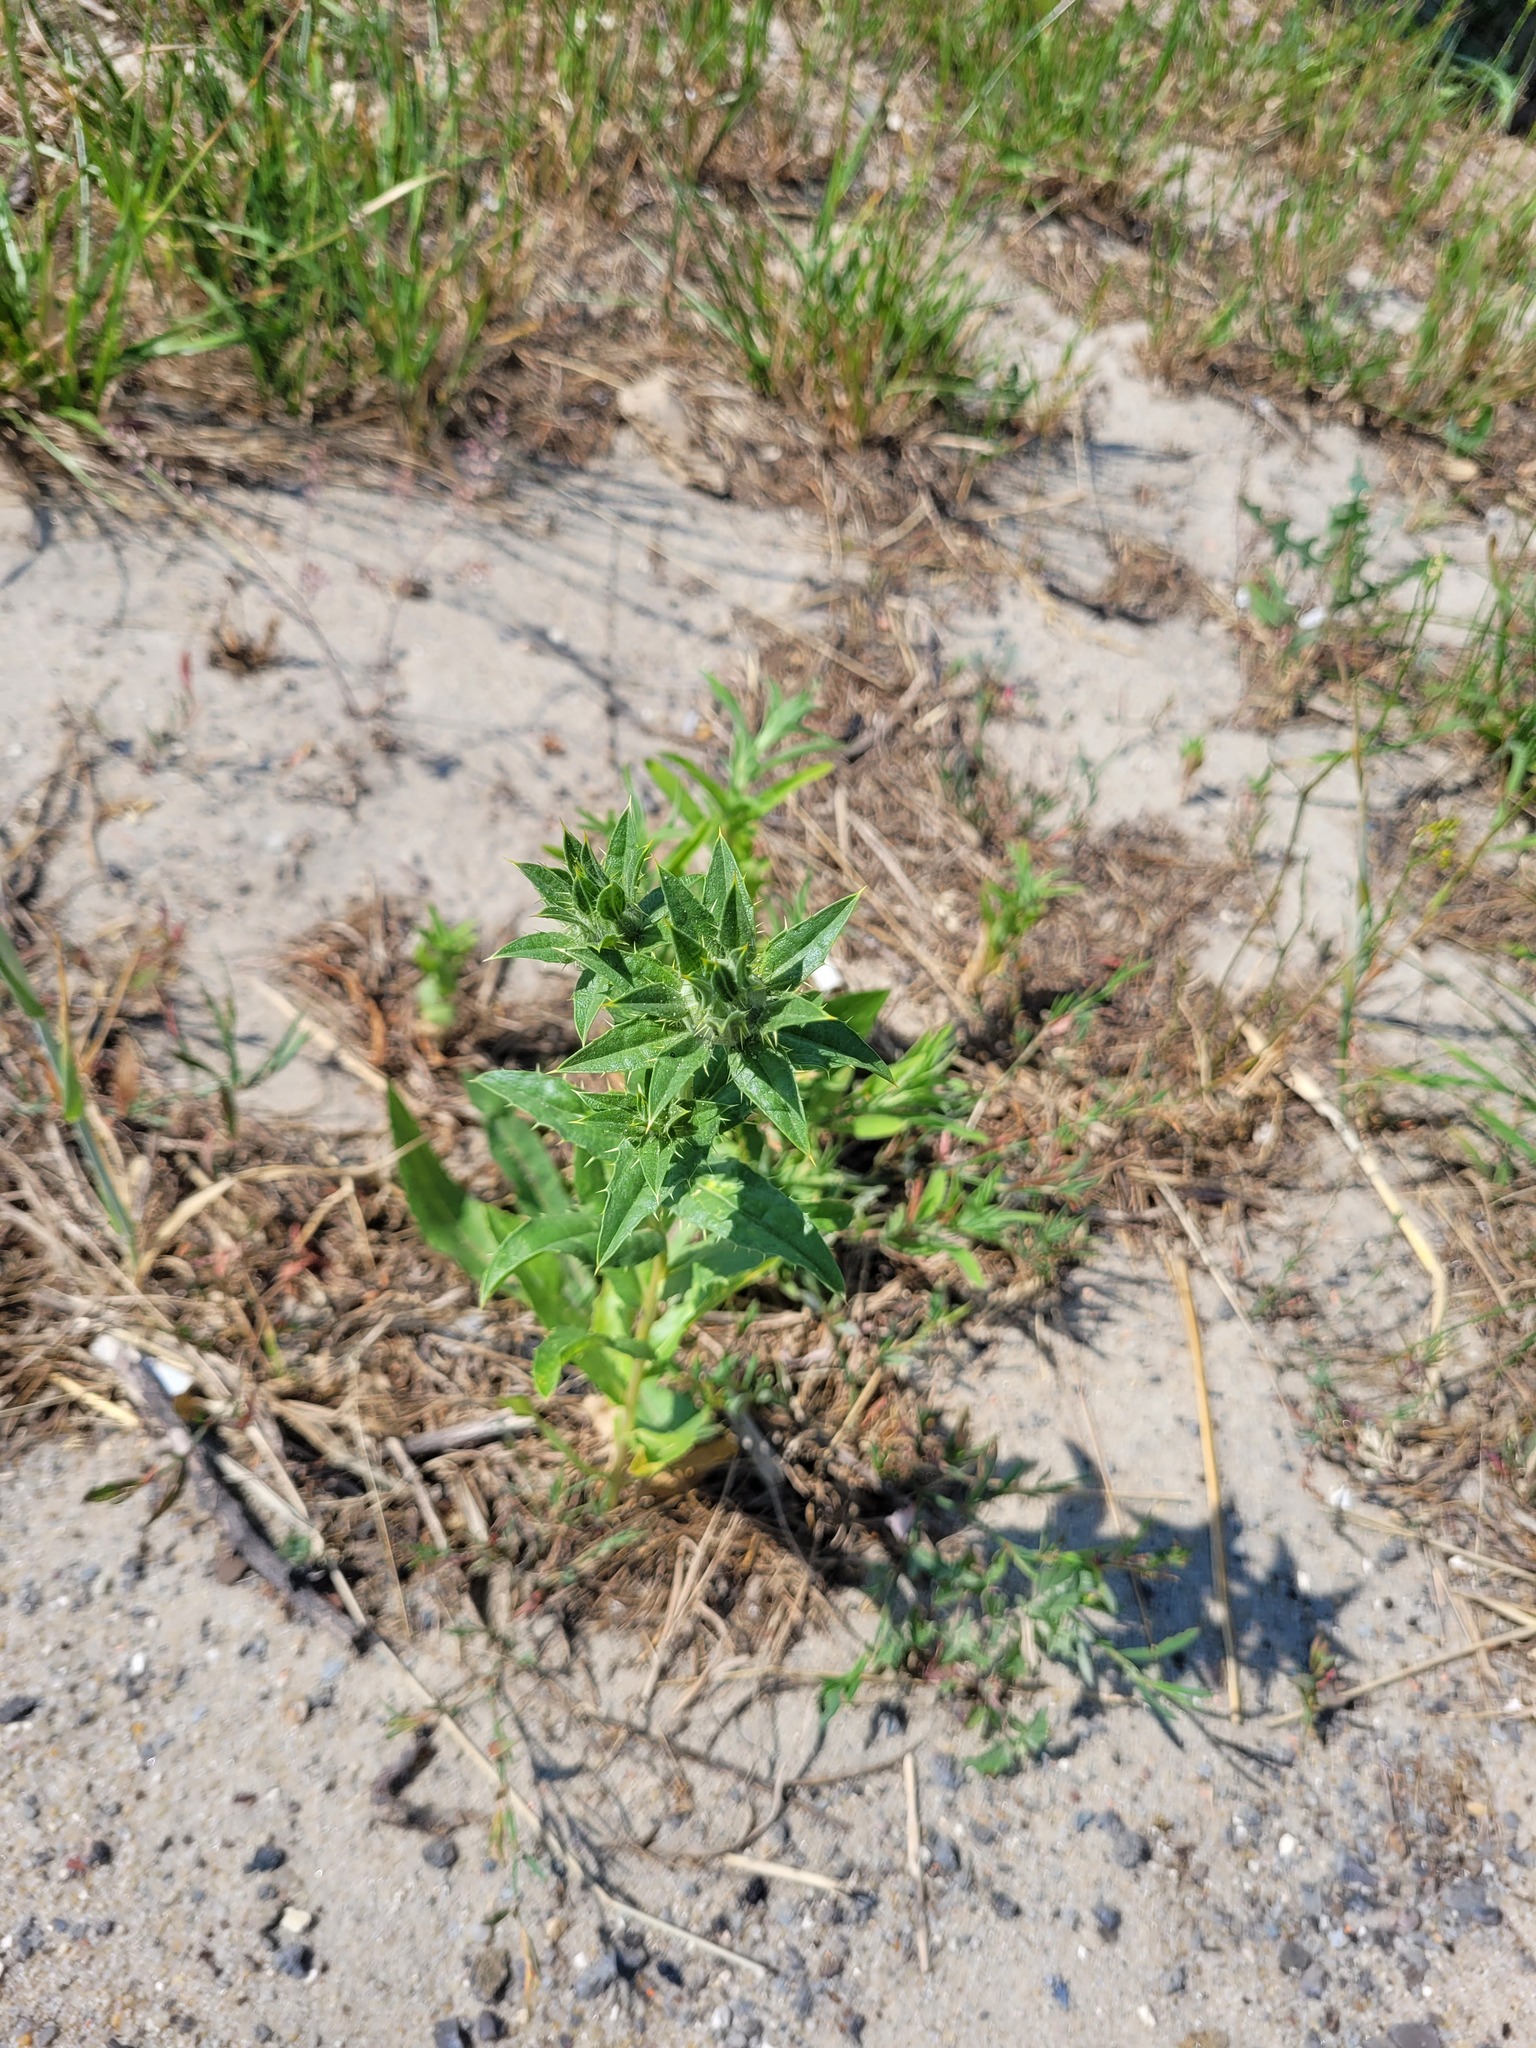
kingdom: Plantae
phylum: Tracheophyta
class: Magnoliopsida
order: Asterales
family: Asteraceae
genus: Carthamus
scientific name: Carthamus tinctorius
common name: Safflower
